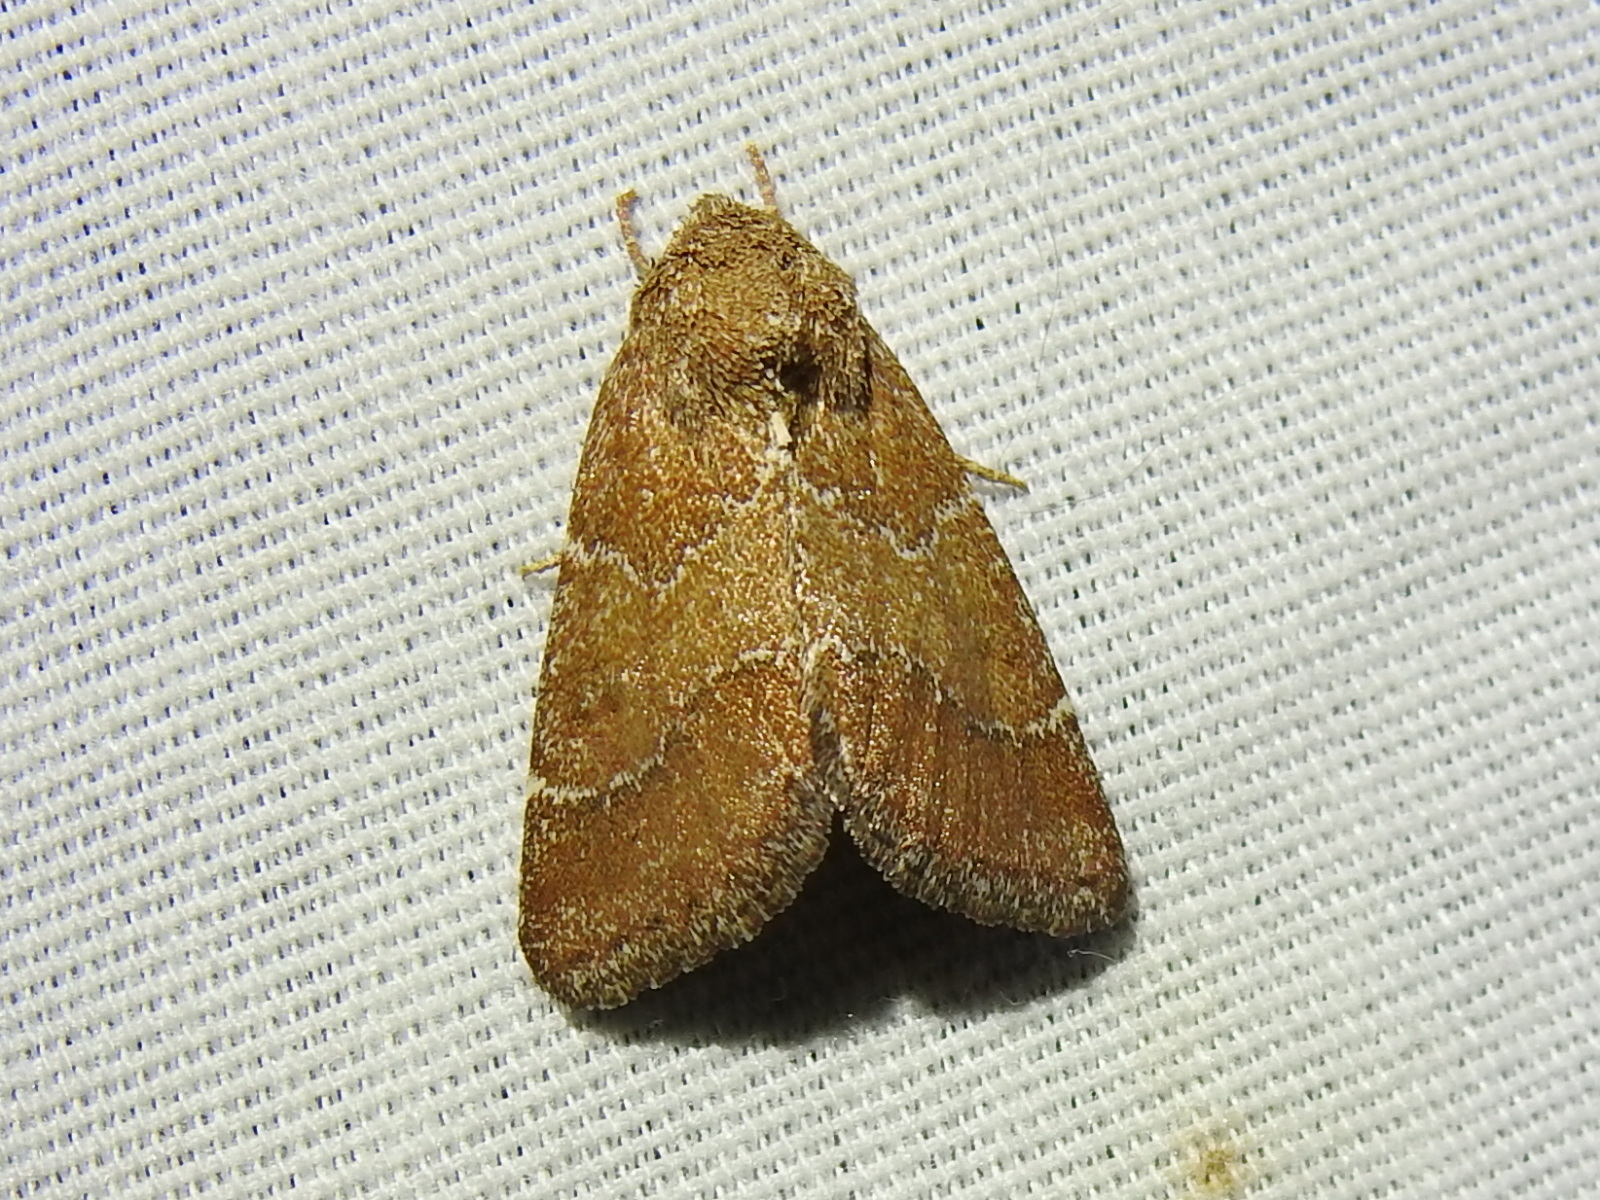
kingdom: Animalia
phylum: Arthropoda
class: Insecta
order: Lepidoptera
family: Noctuidae
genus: Schinia
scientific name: Schinia saturata
